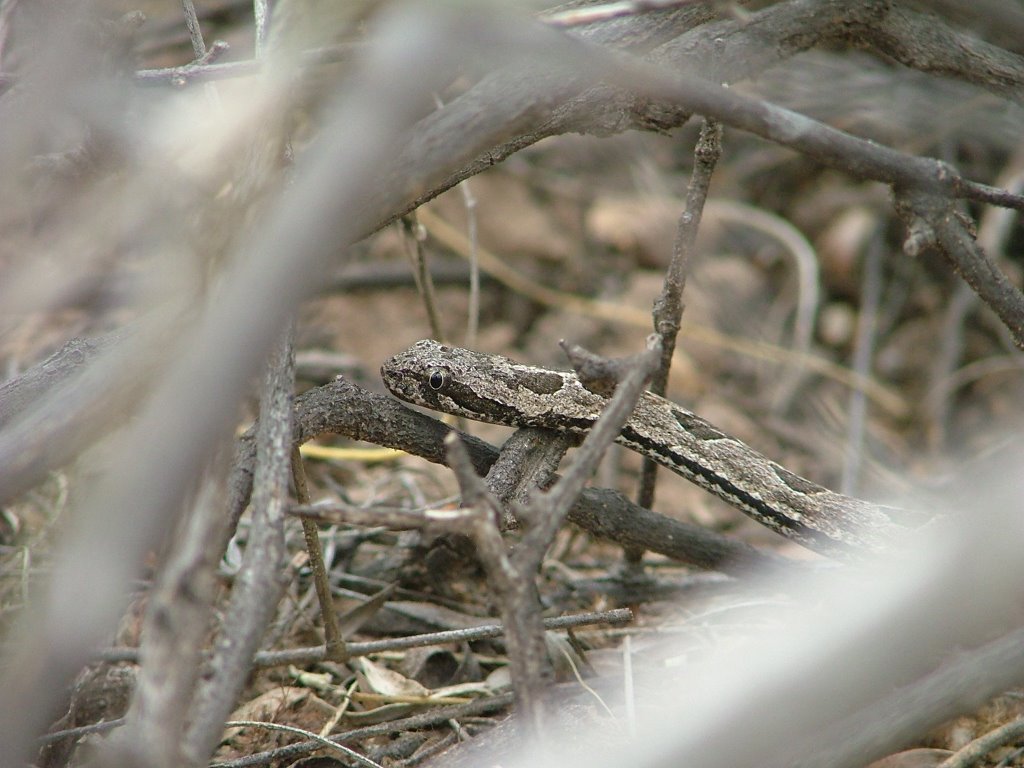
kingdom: Animalia
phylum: Chordata
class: Squamata
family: Colubridae
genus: Tachymenis
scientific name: Tachymenis
